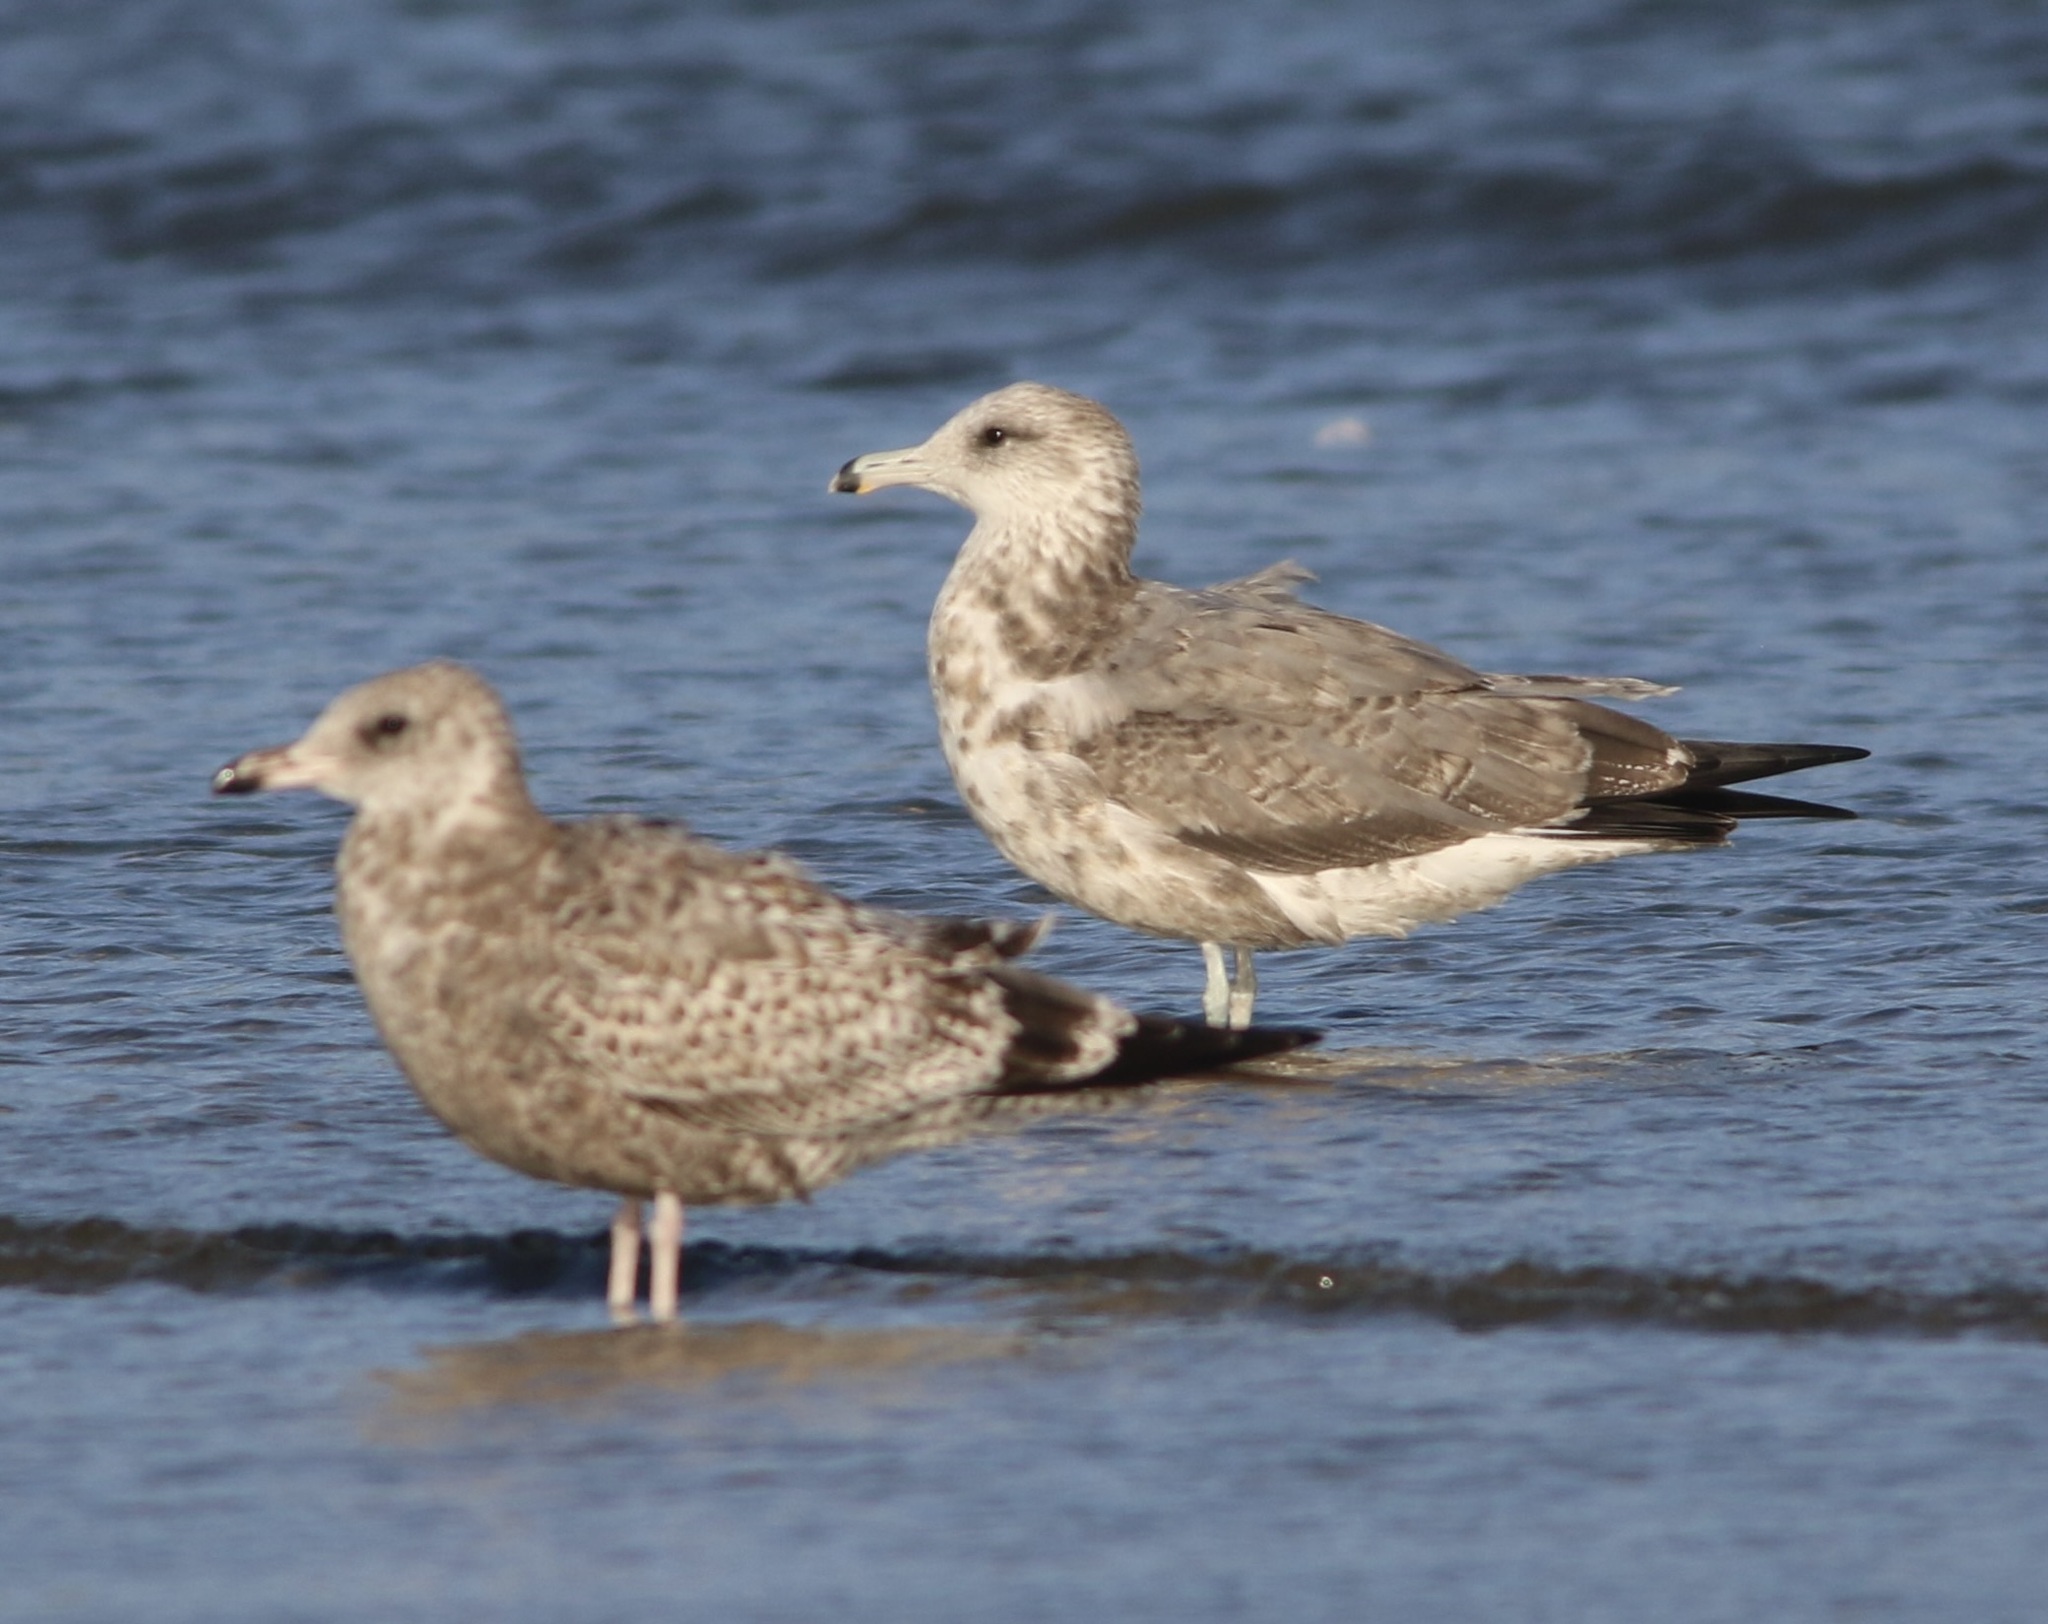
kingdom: Animalia
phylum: Chordata
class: Aves
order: Charadriiformes
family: Laridae
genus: Larus
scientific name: Larus californicus
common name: California gull
